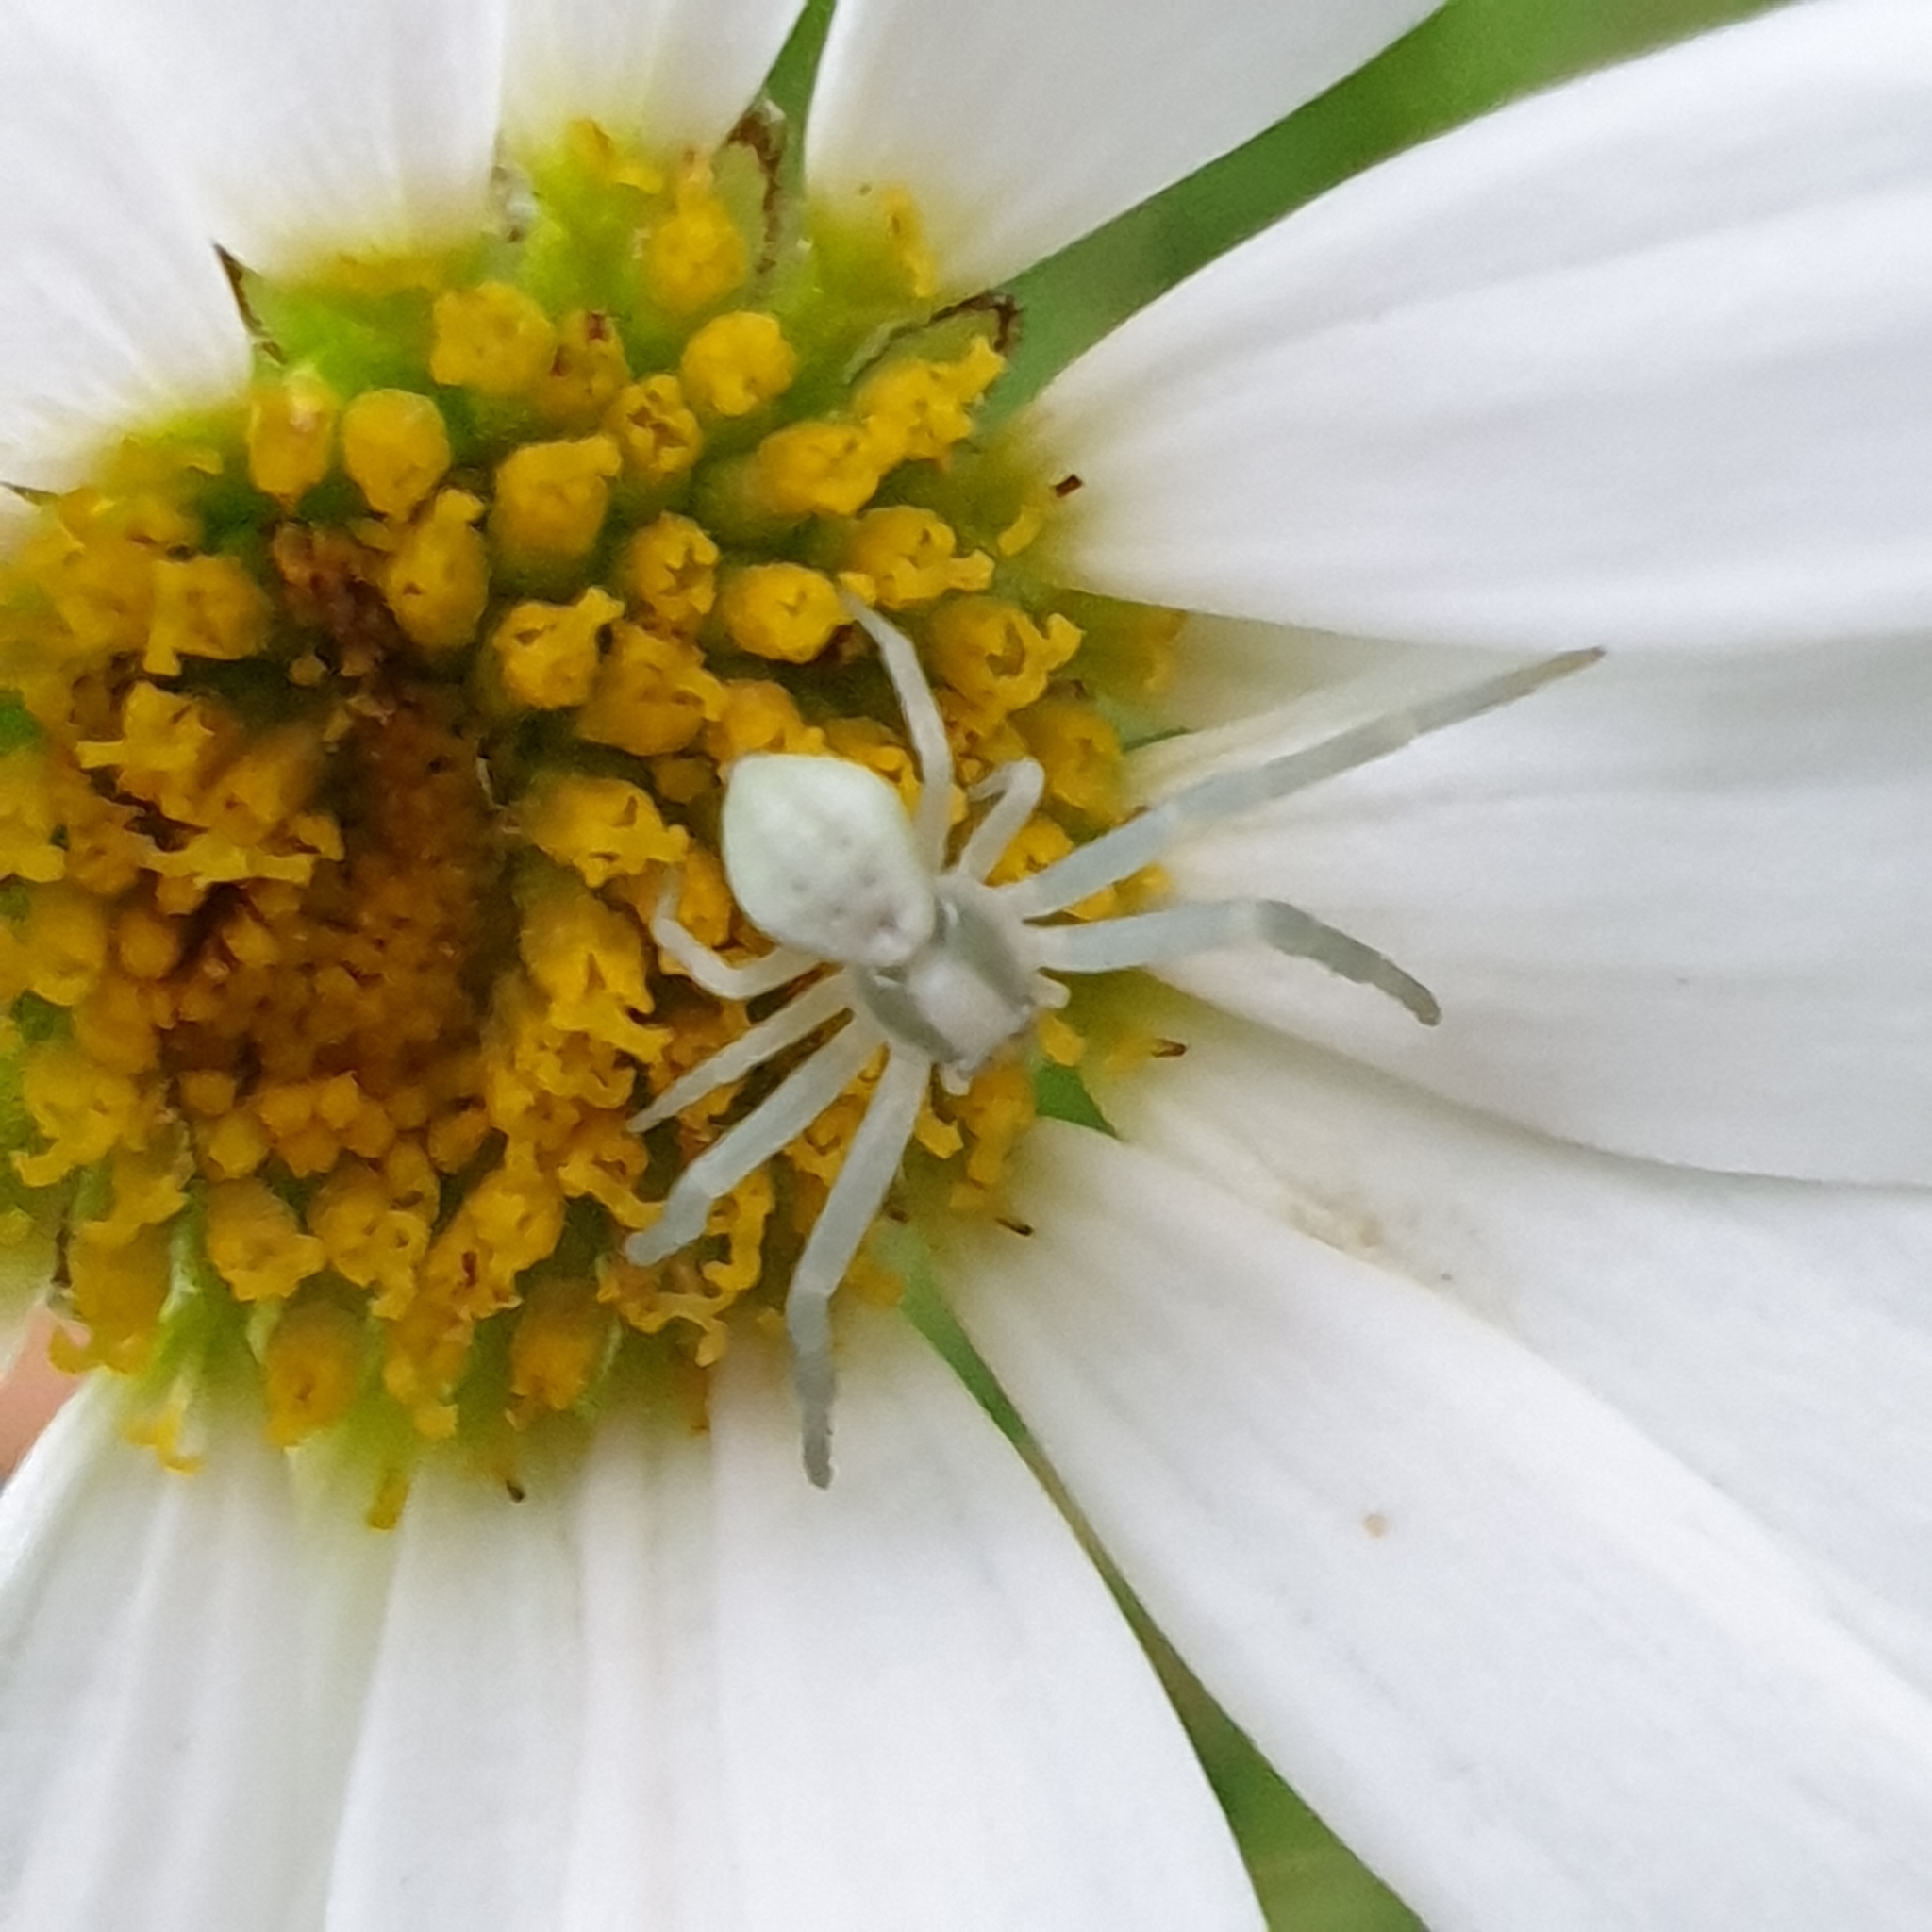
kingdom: Animalia
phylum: Arthropoda
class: Arachnida
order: Araneae
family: Thomisidae
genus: Misumena
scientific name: Misumena vatia
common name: Goldenrod crab spider
